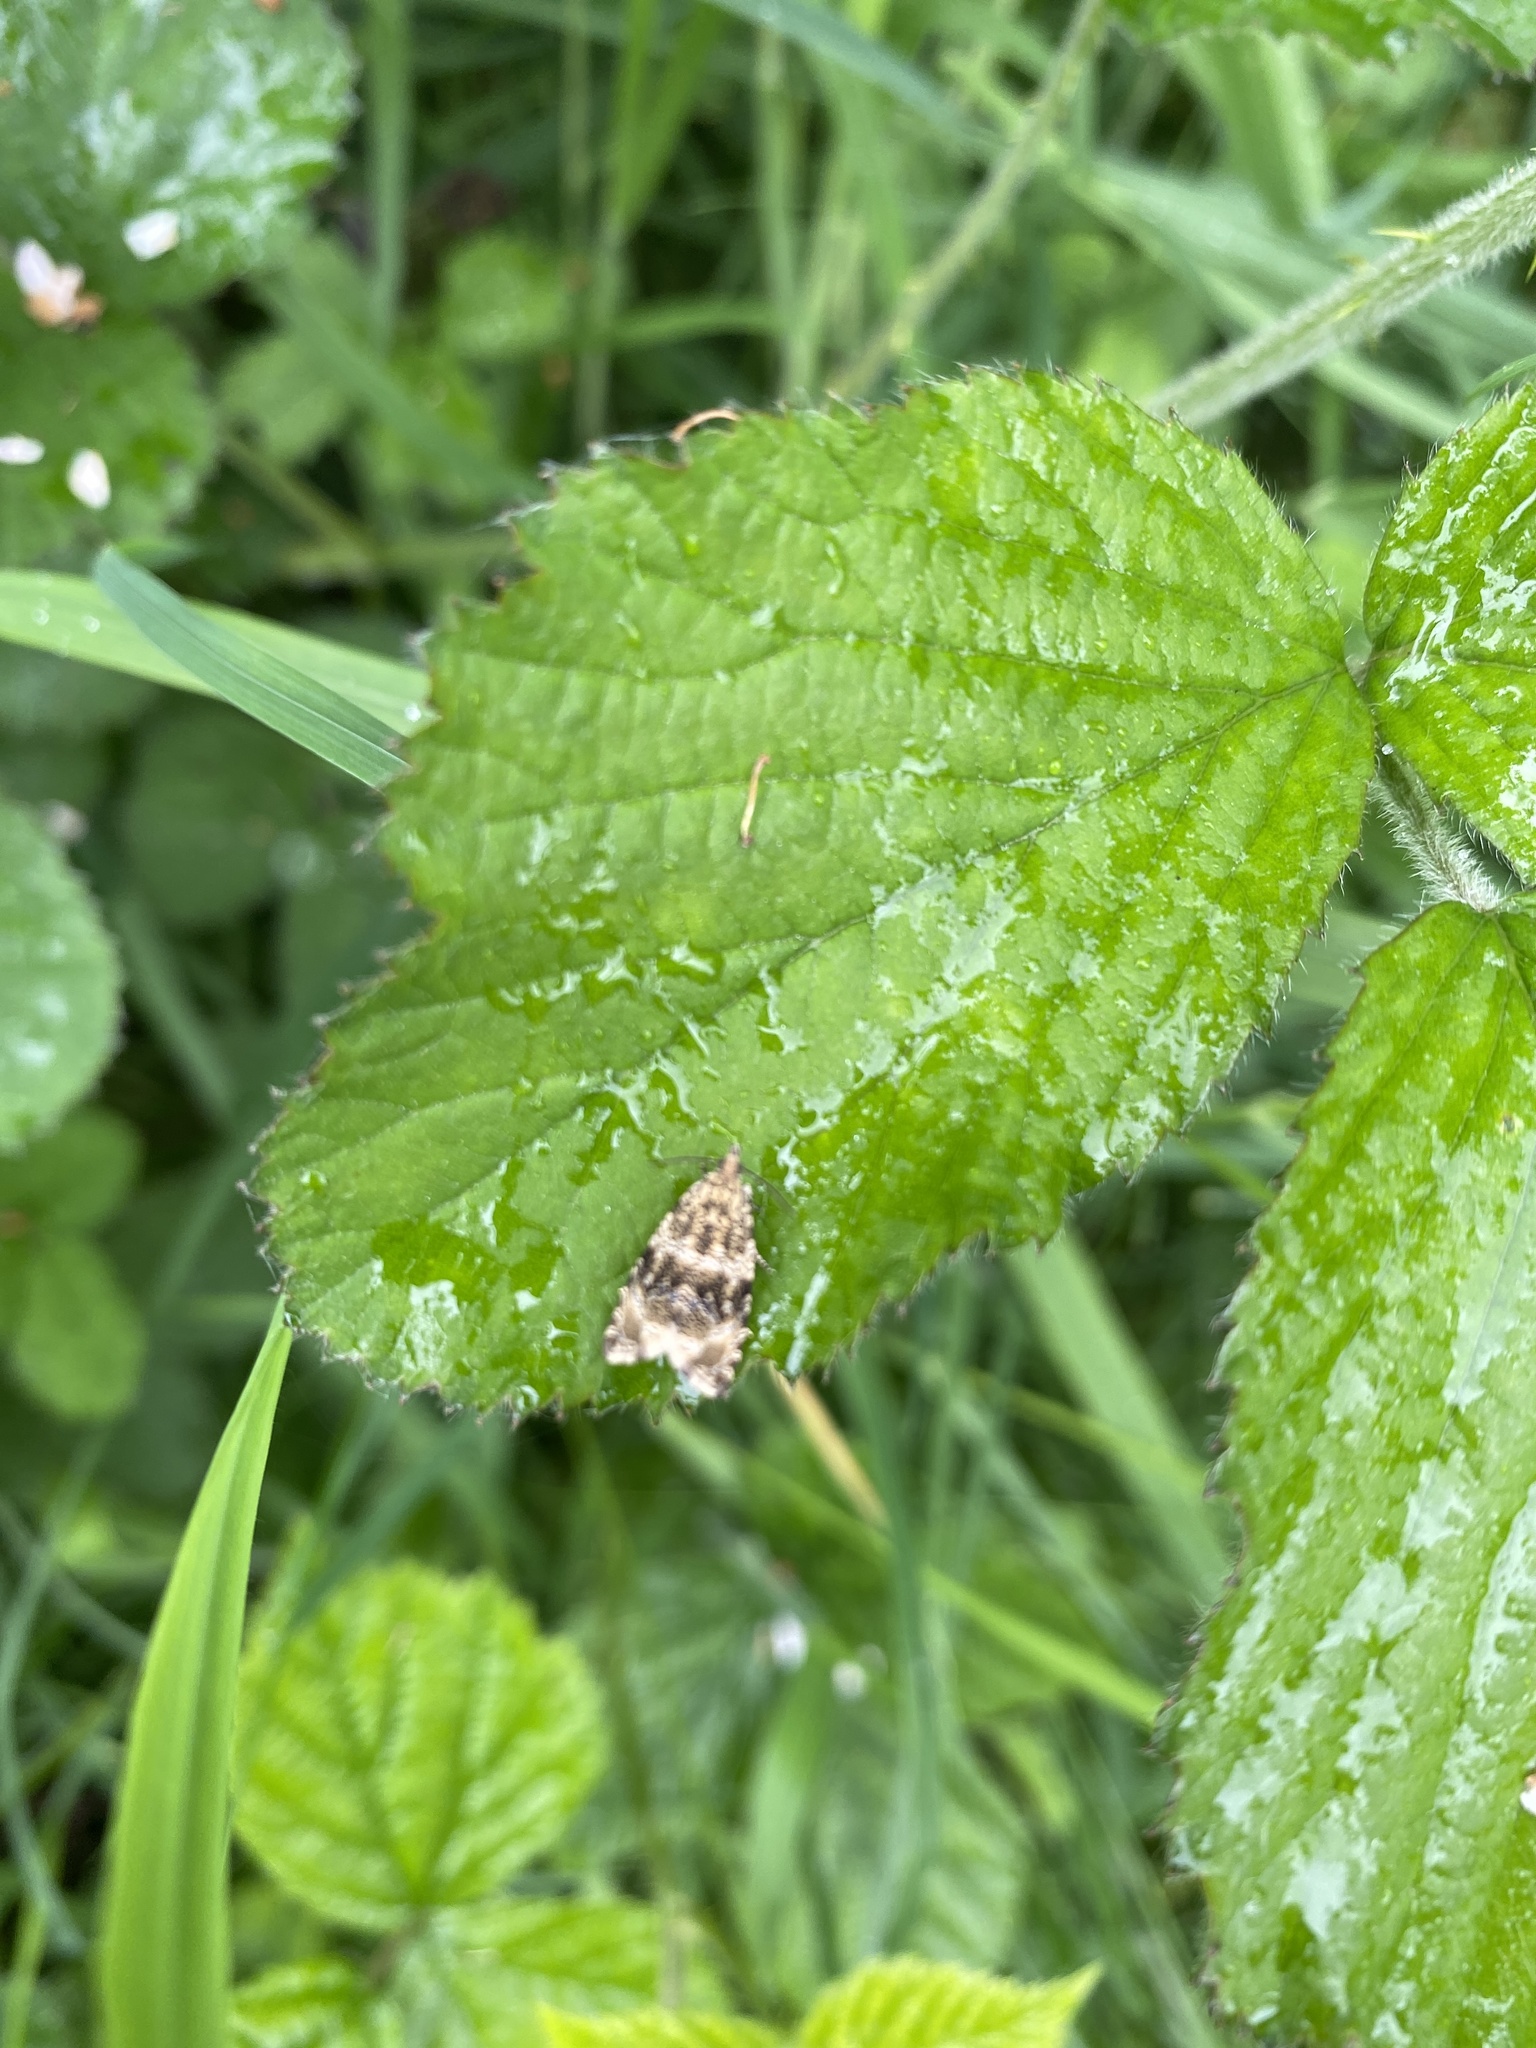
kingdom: Animalia
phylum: Arthropoda
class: Insecta
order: Lepidoptera
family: Tortricidae
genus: Syricoris
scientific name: Syricoris lacunana
